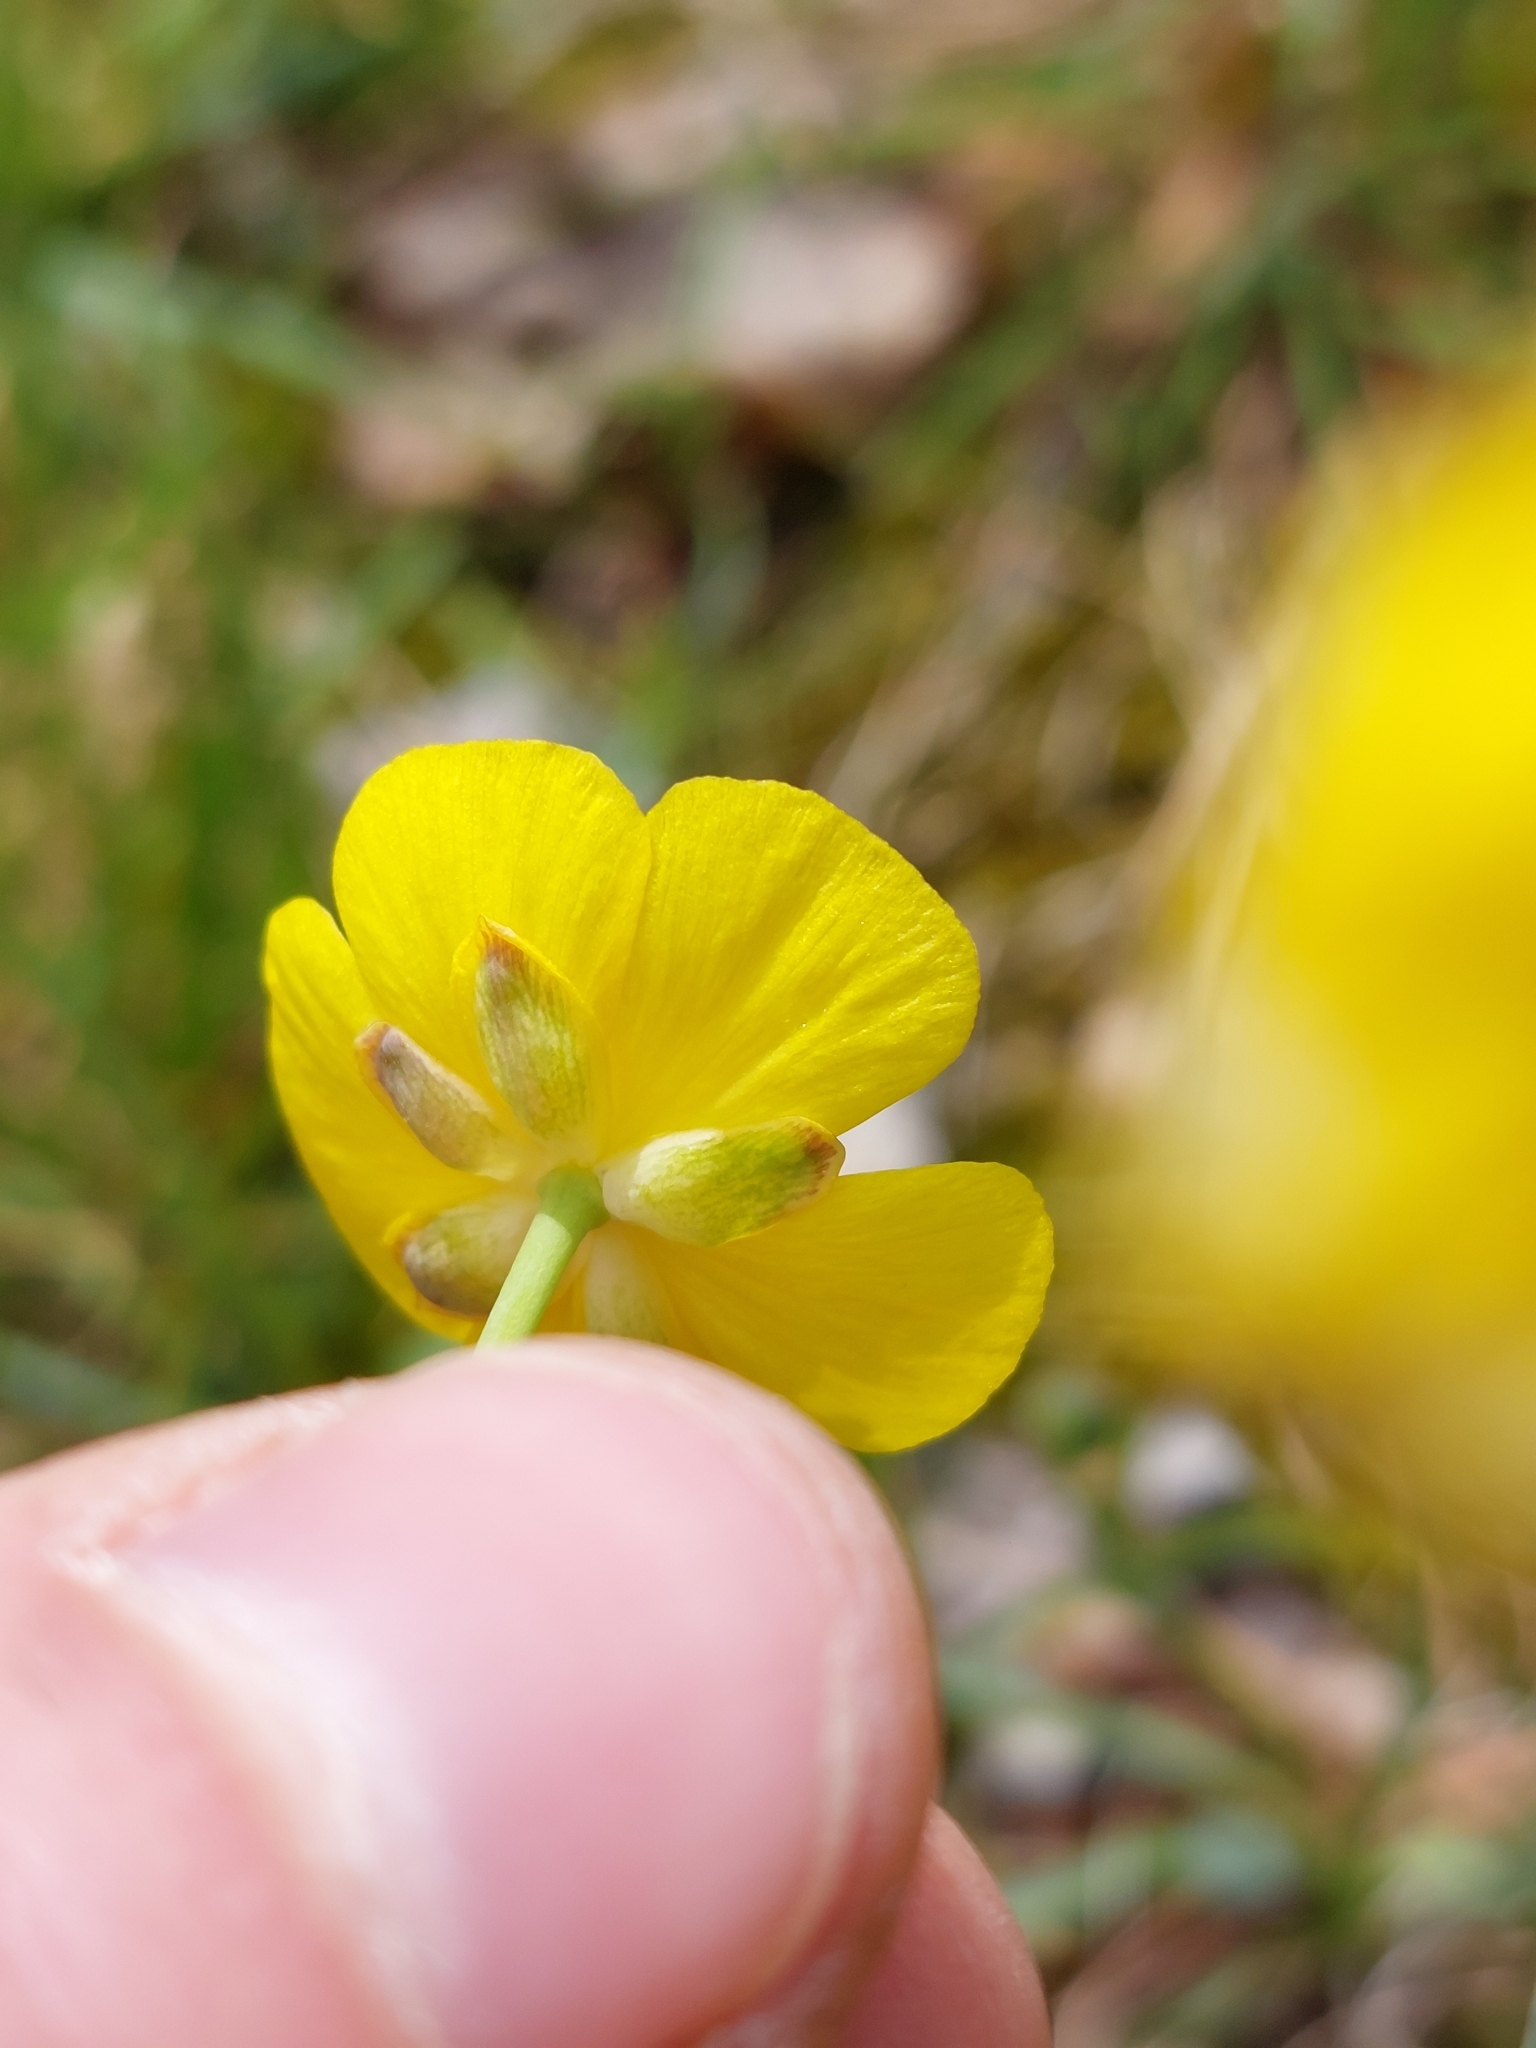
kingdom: Plantae
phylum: Tracheophyta
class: Magnoliopsida
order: Ranunculales
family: Ranunculaceae
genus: Ranunculus
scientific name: Ranunculus gramineus
